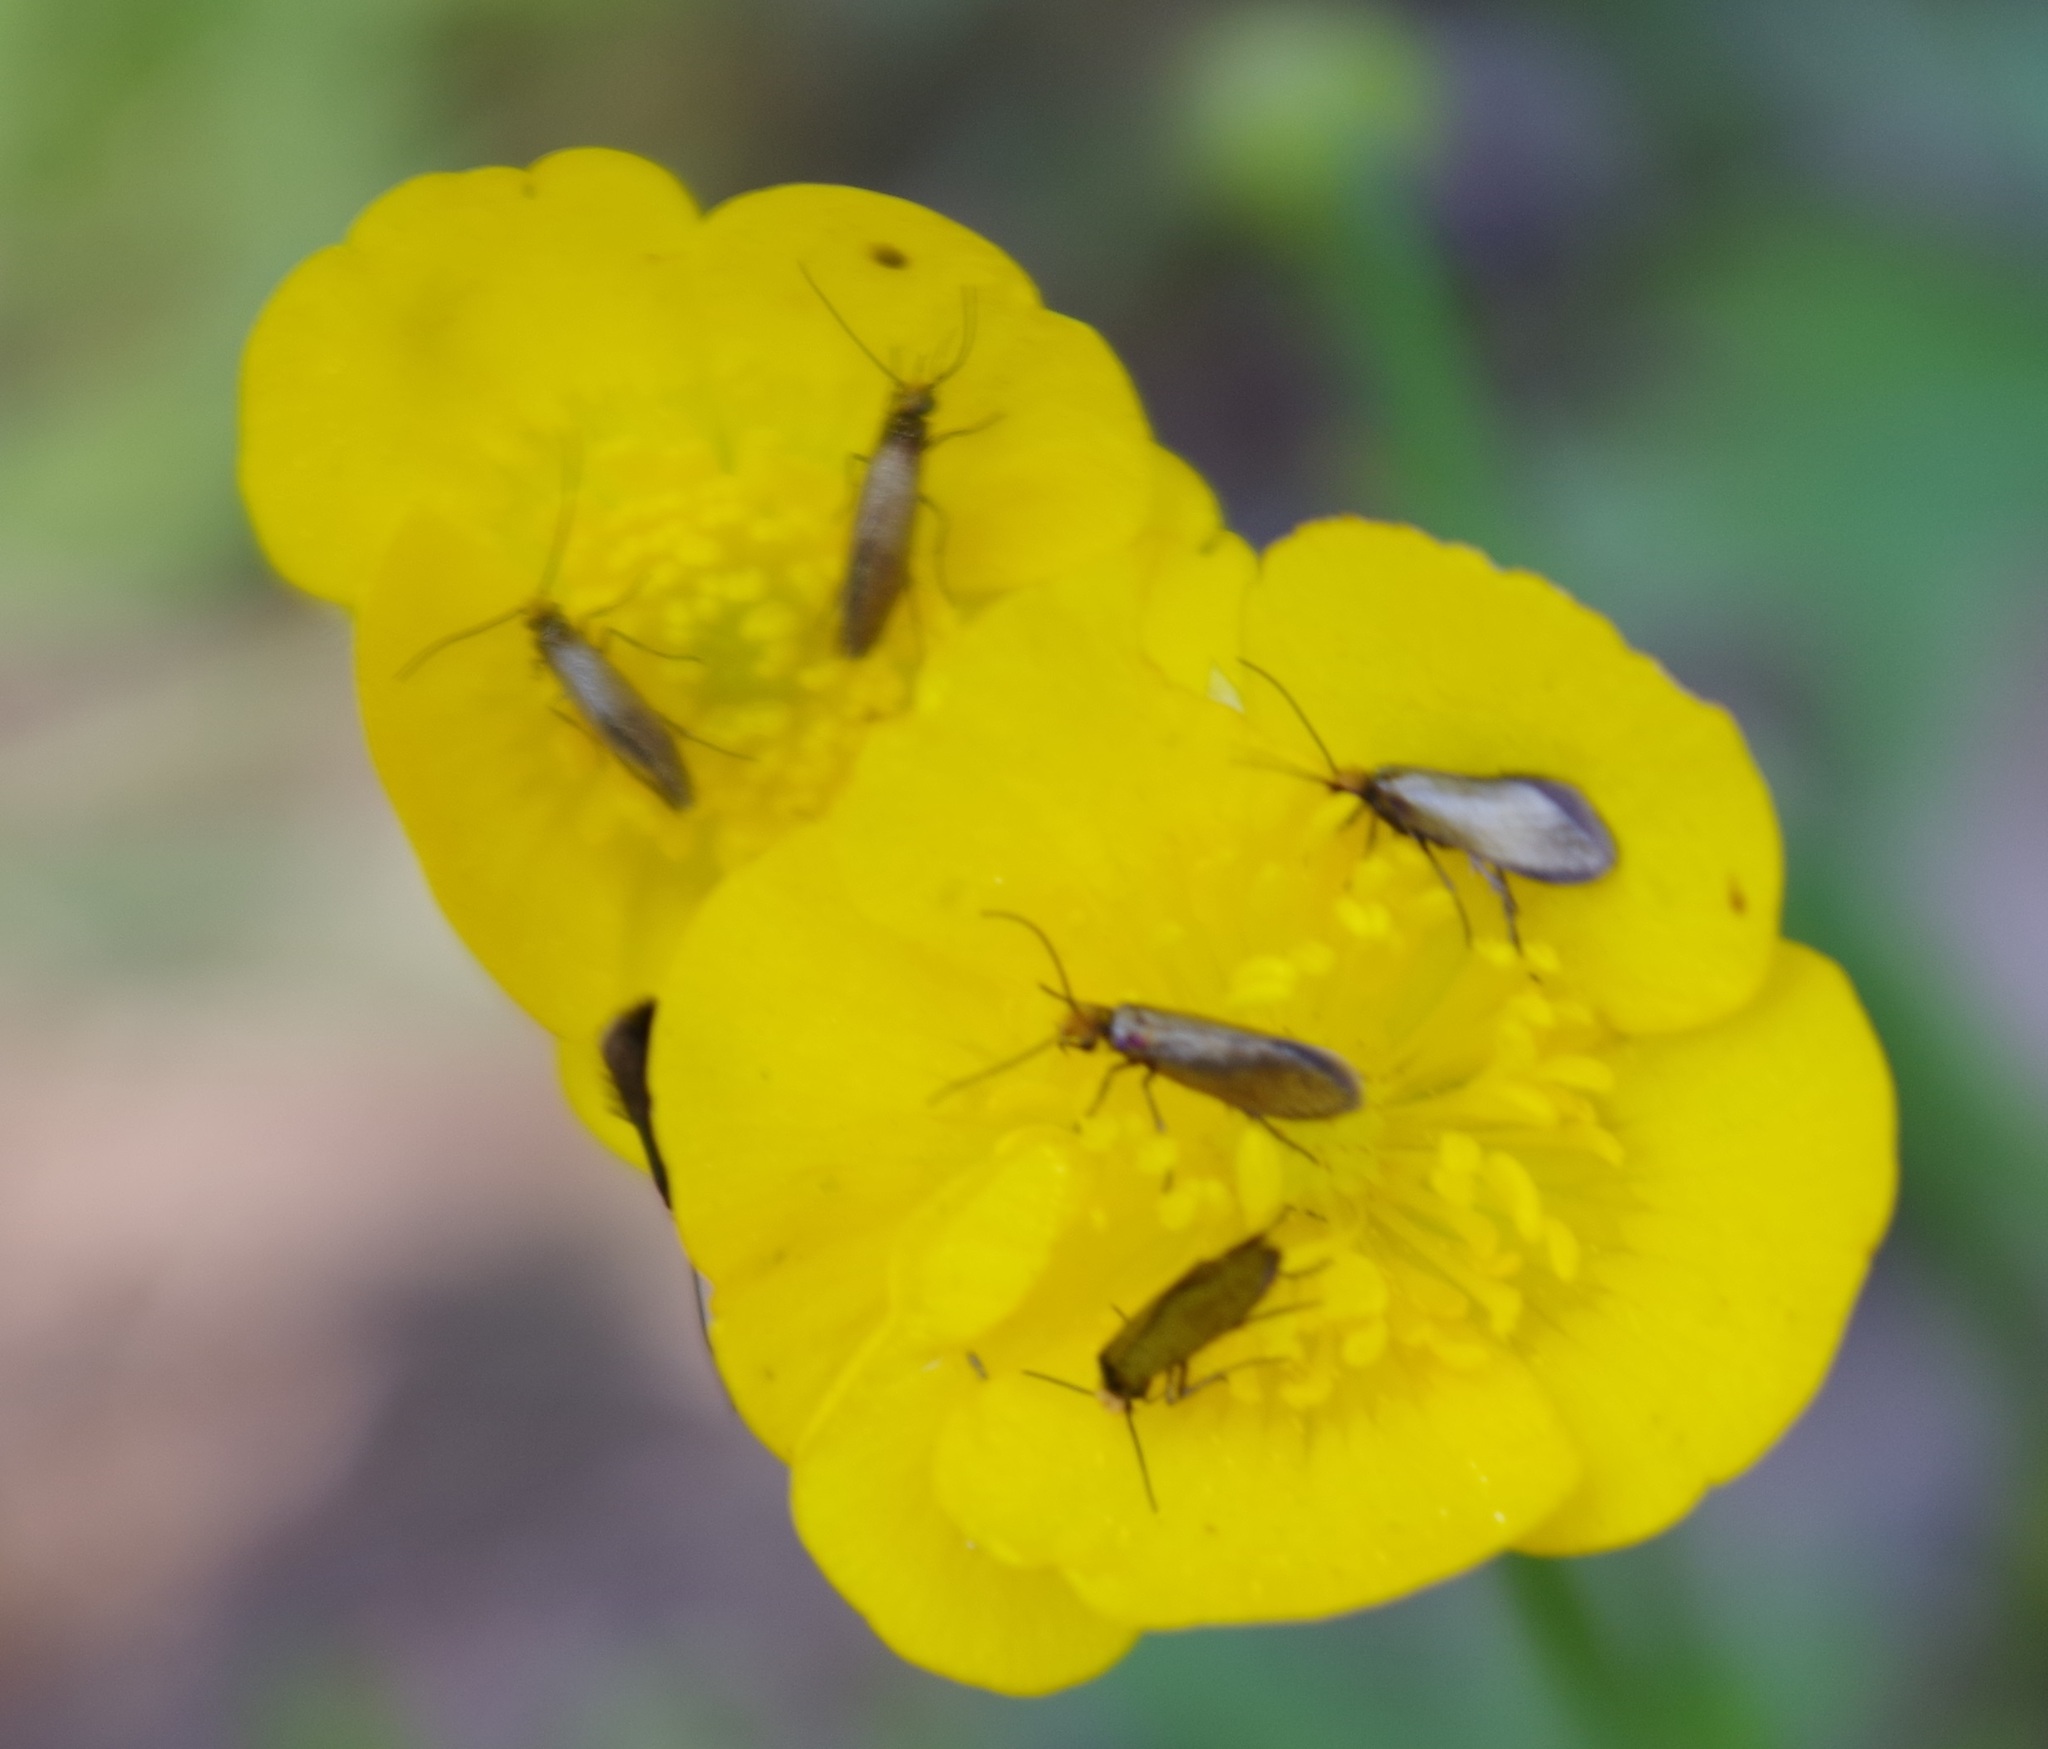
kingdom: Animalia
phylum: Arthropoda
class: Insecta
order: Lepidoptera
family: Micropterigidae
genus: Micropterix
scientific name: Micropterix calthella
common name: Plain gold
